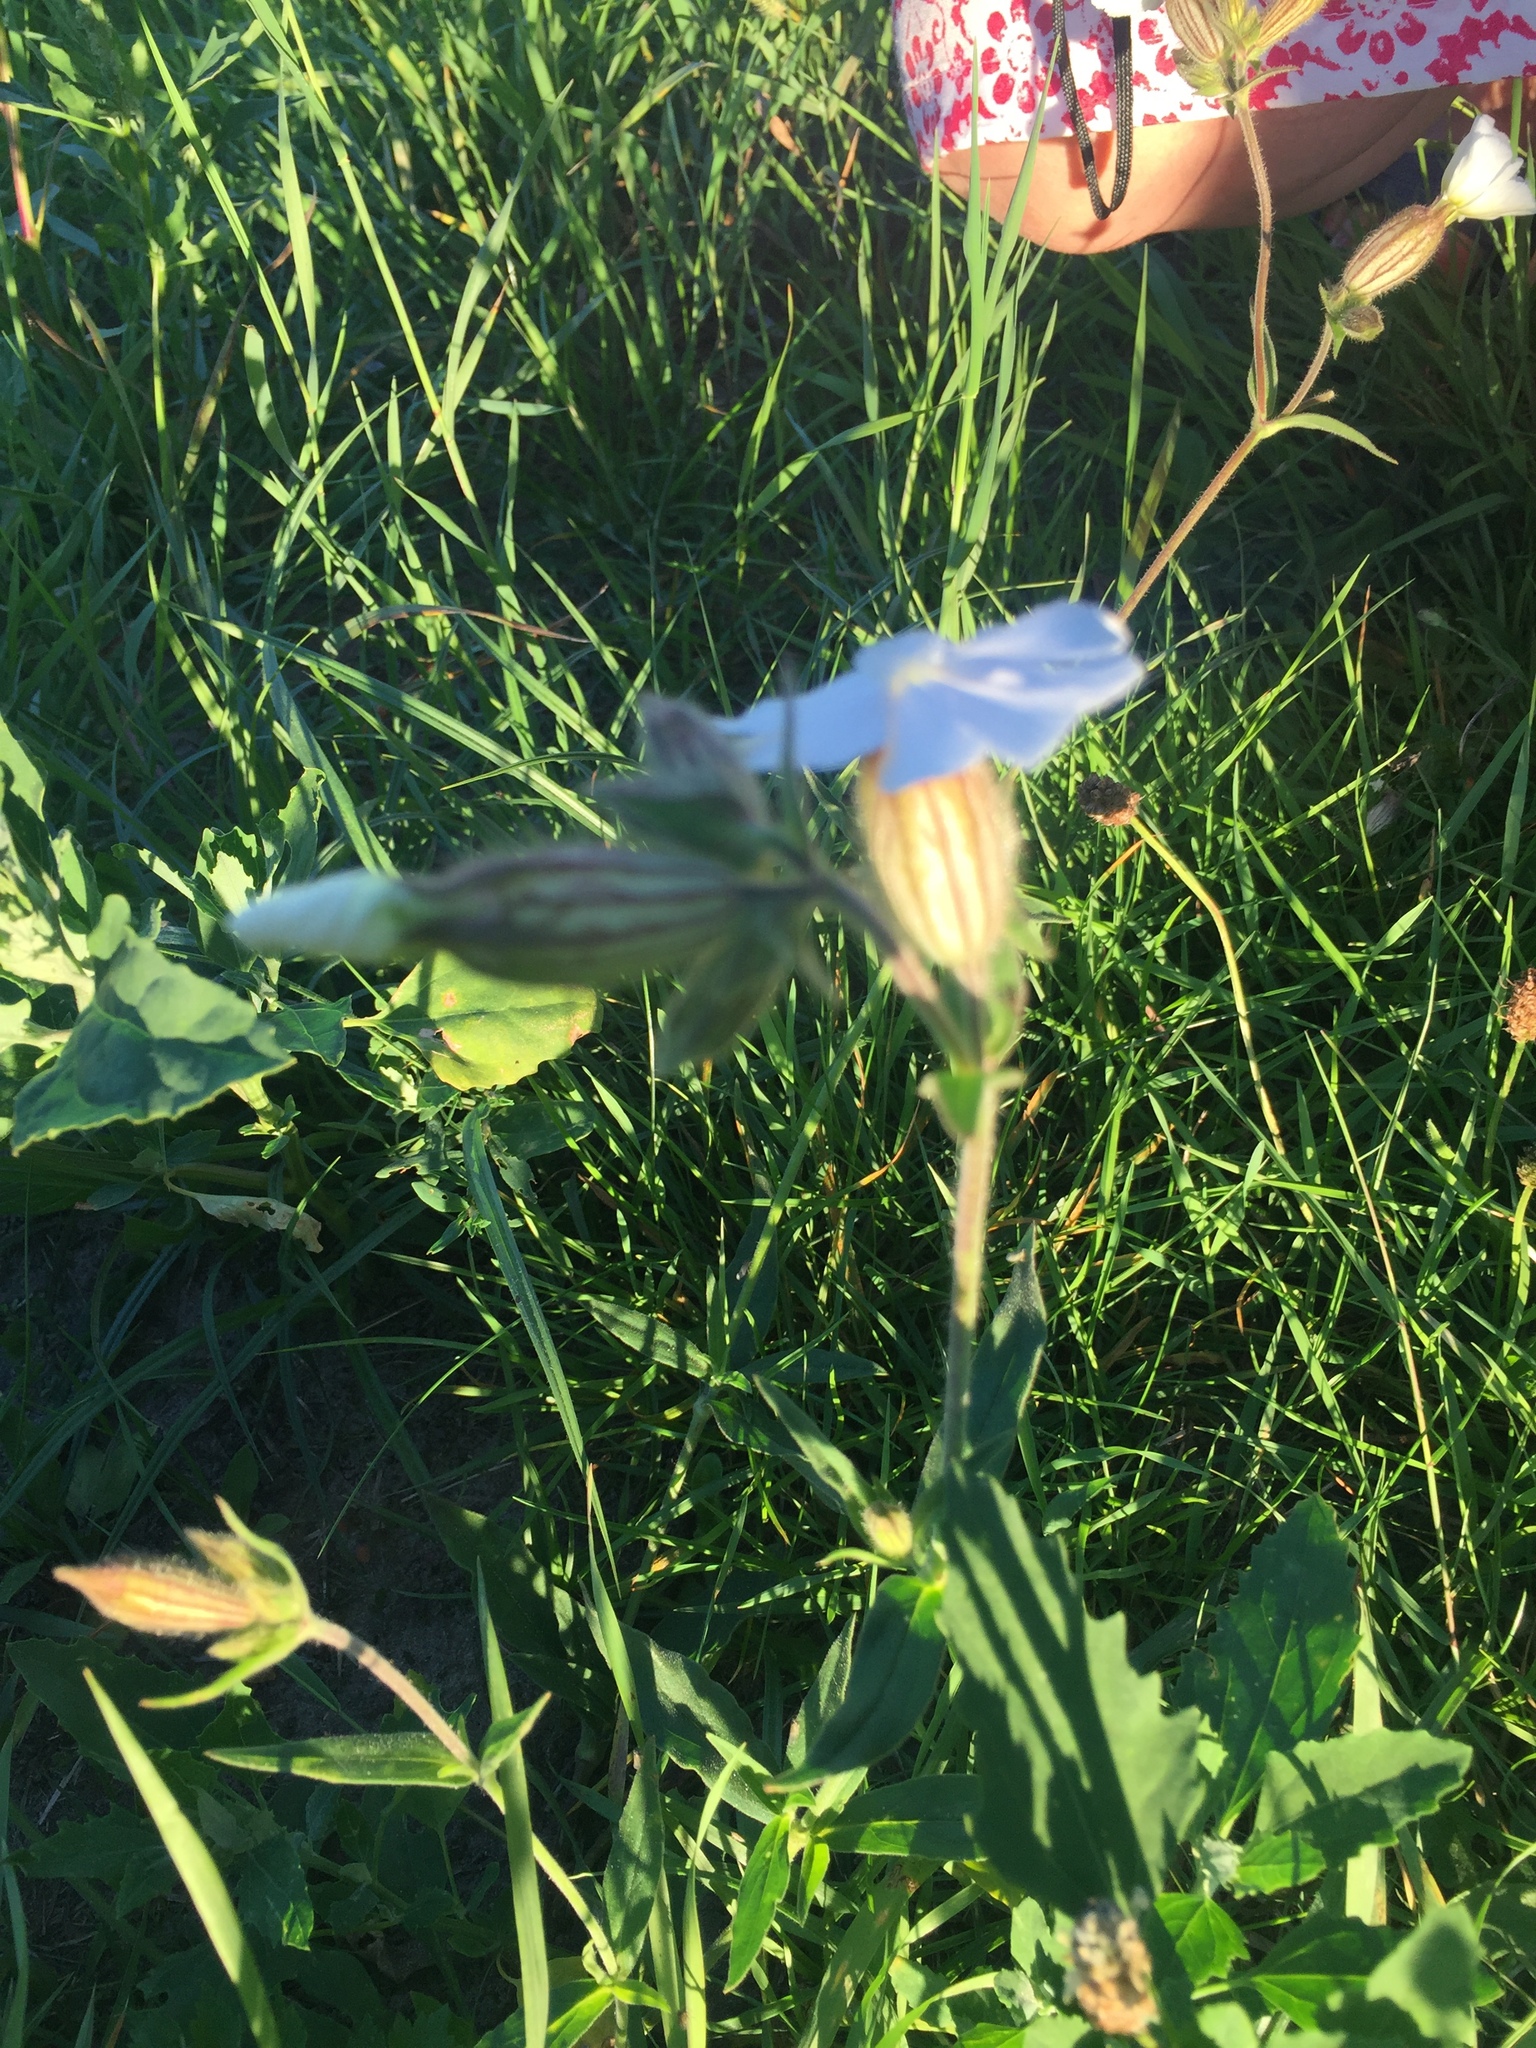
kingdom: Plantae
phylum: Tracheophyta
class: Magnoliopsida
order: Caryophyllales
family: Caryophyllaceae
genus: Silene
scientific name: Silene latifolia
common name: White campion
